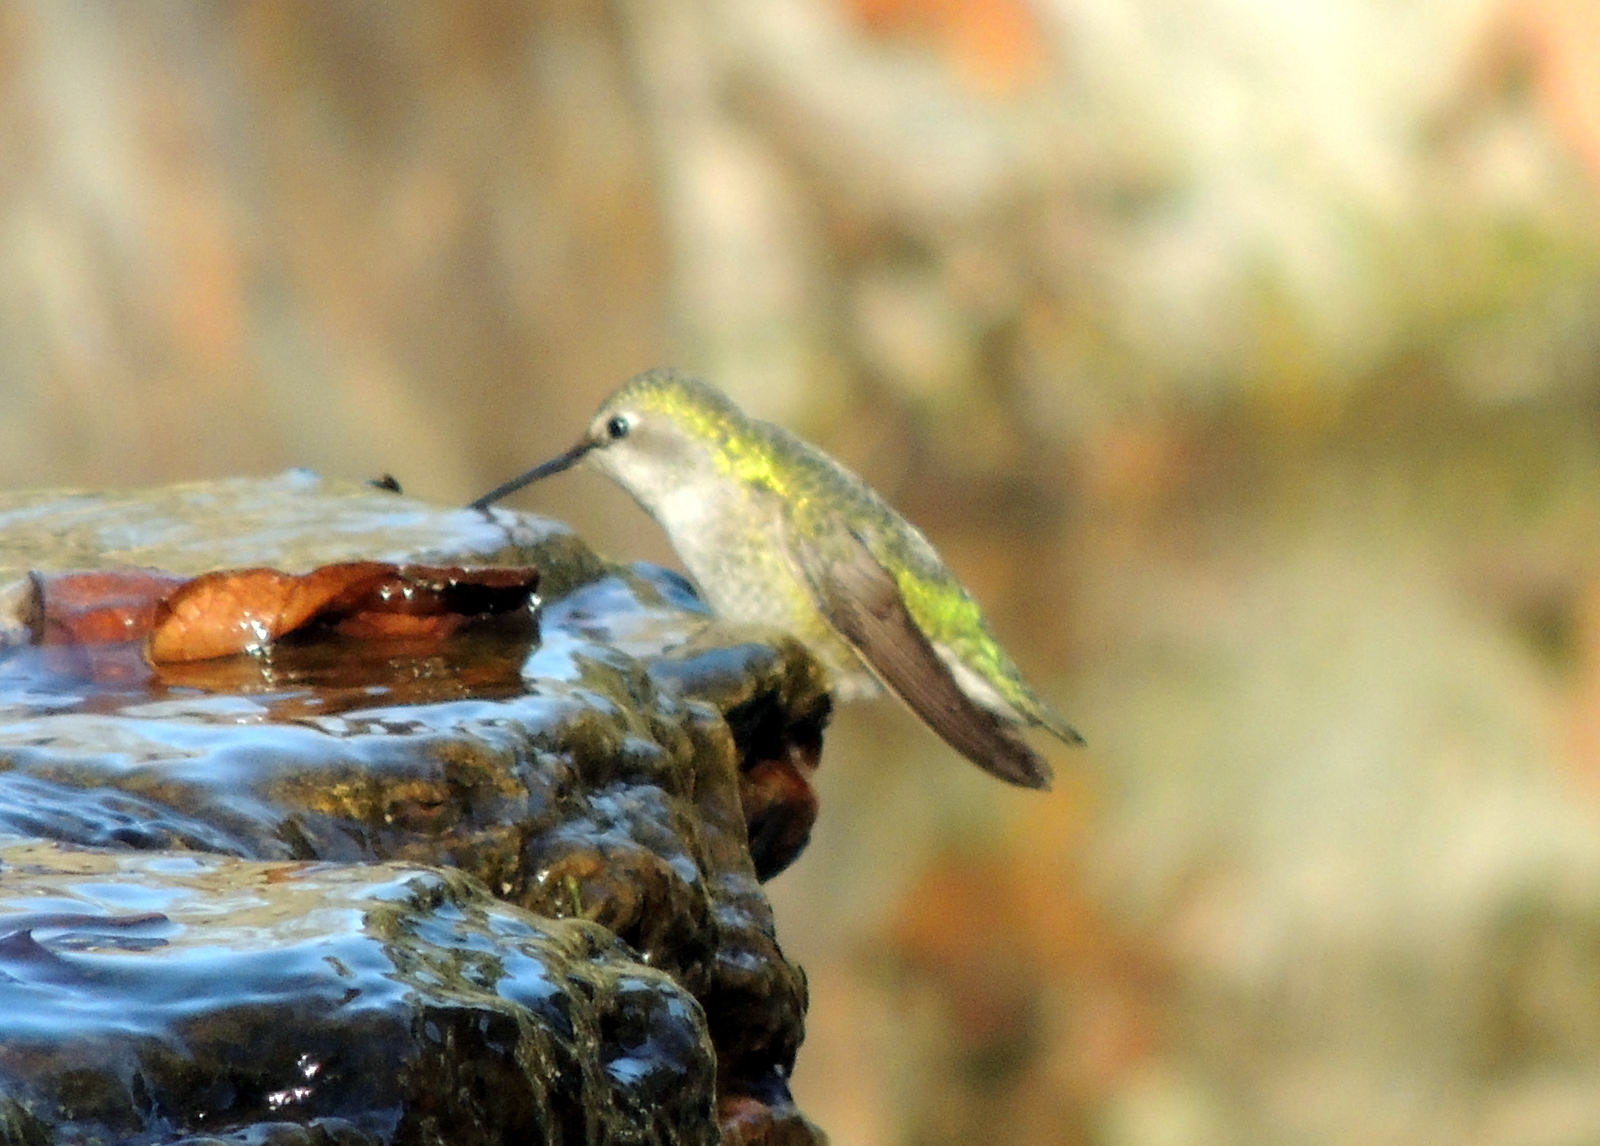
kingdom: Animalia
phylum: Chordata
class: Aves
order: Apodiformes
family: Trochilidae
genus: Calypte
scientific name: Calypte anna
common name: Anna's hummingbird
